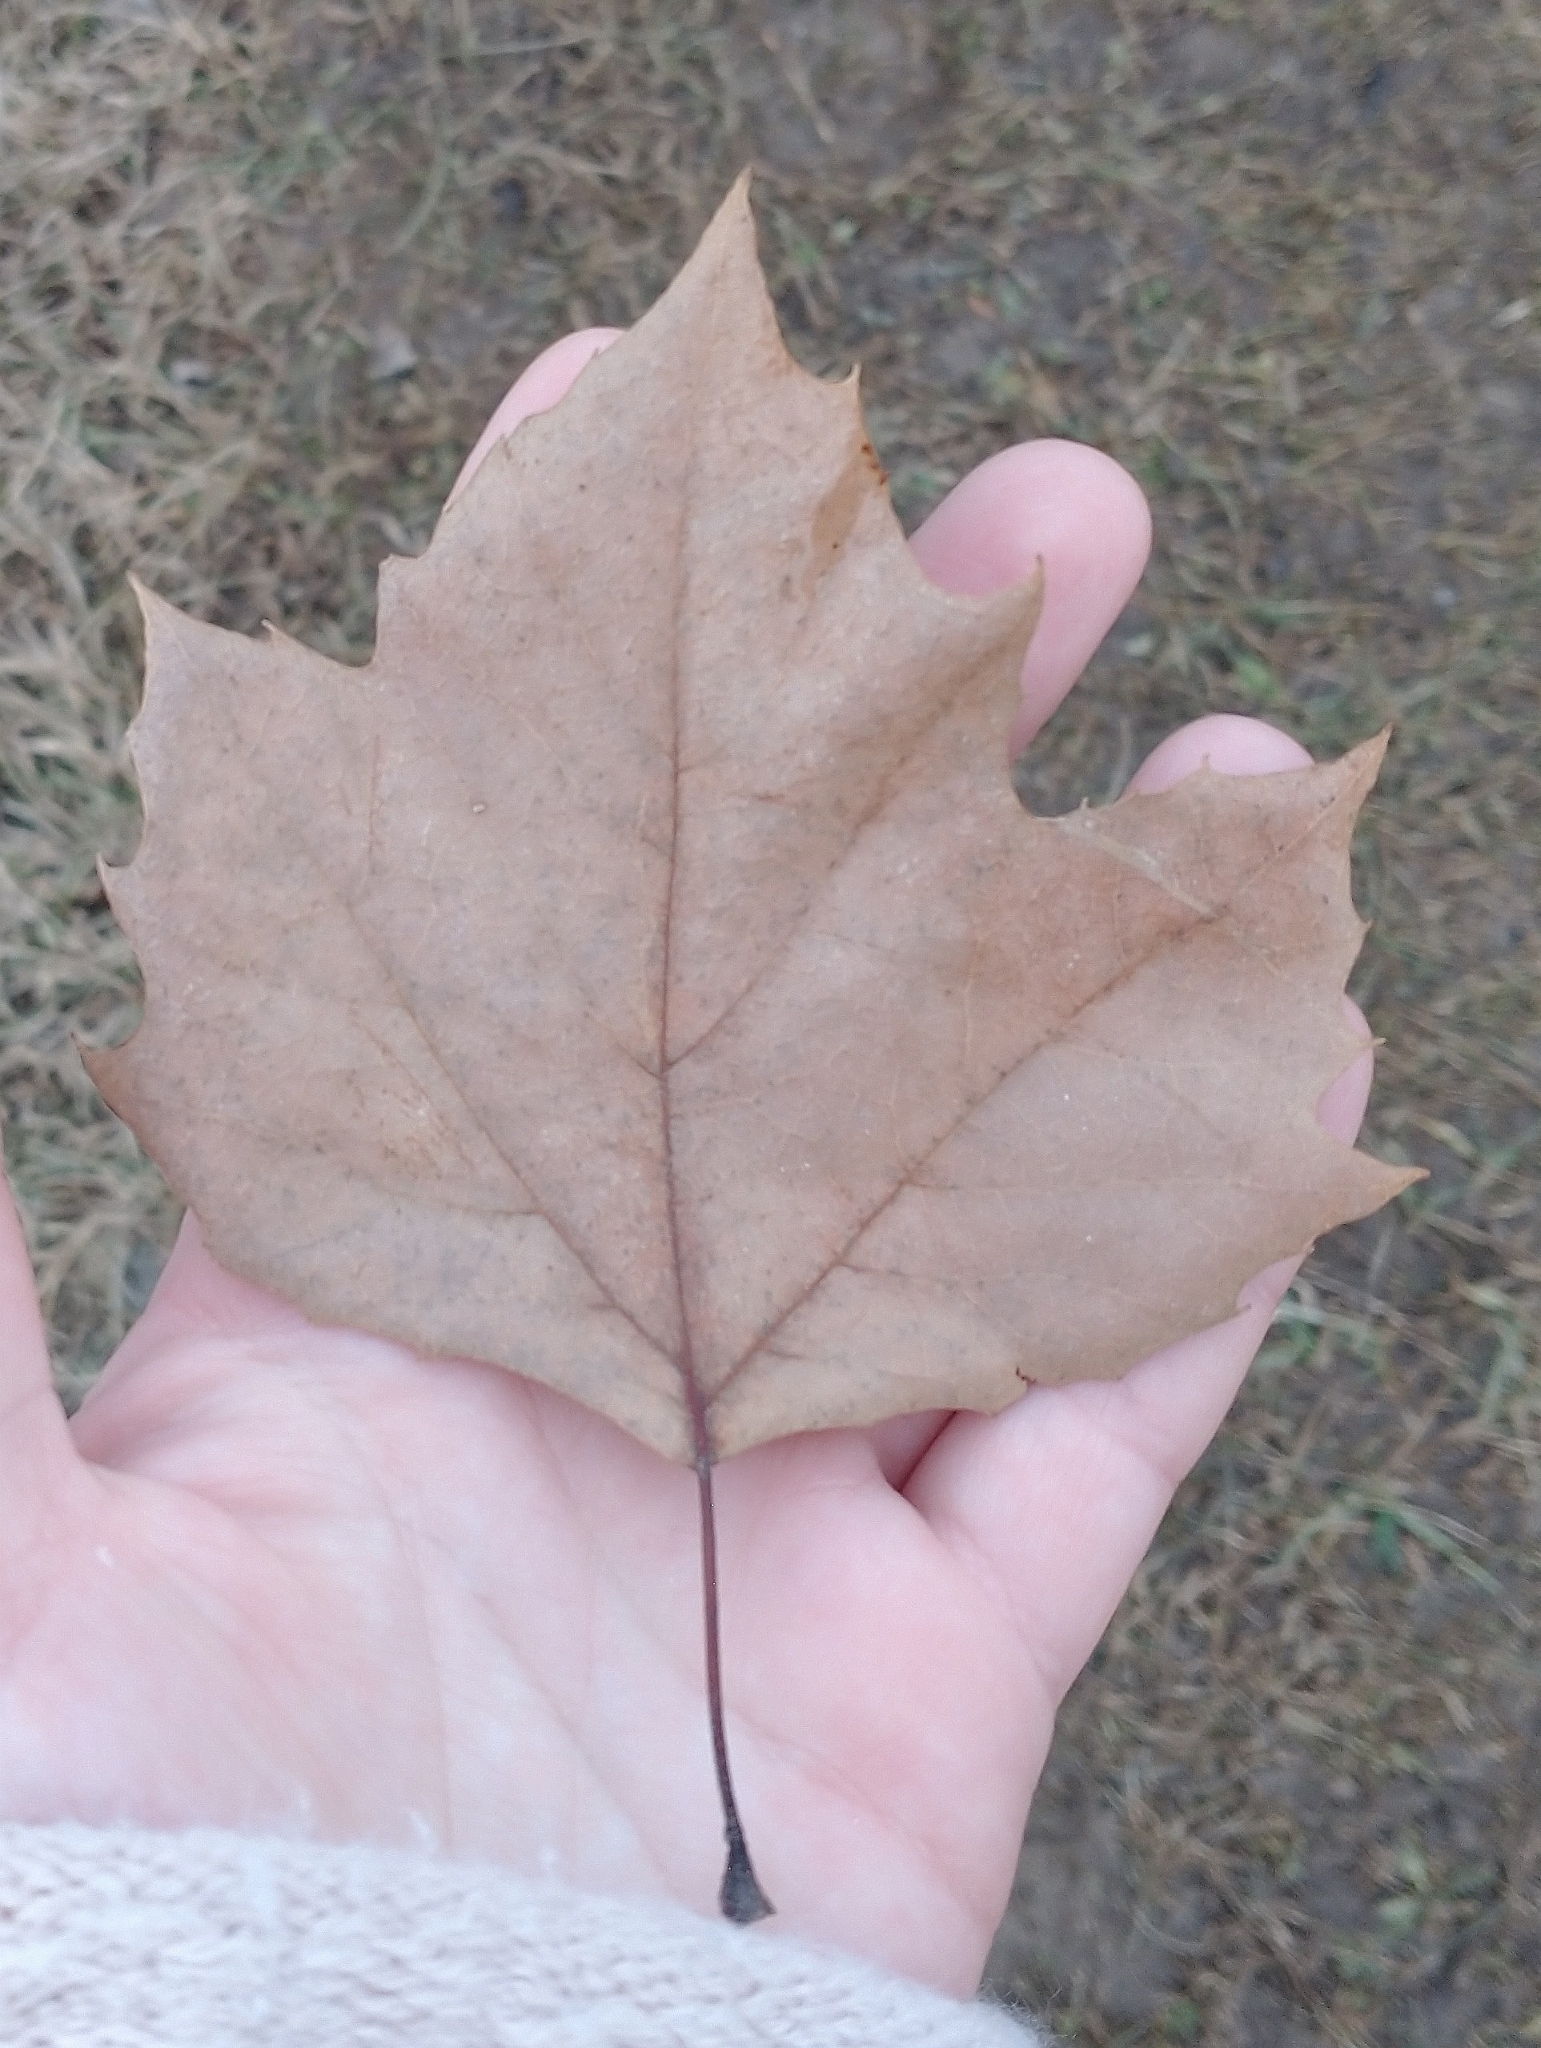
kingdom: Plantae
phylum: Tracheophyta
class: Magnoliopsida
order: Proteales
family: Platanaceae
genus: Platanus
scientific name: Platanus occidentalis
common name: American sycamore
